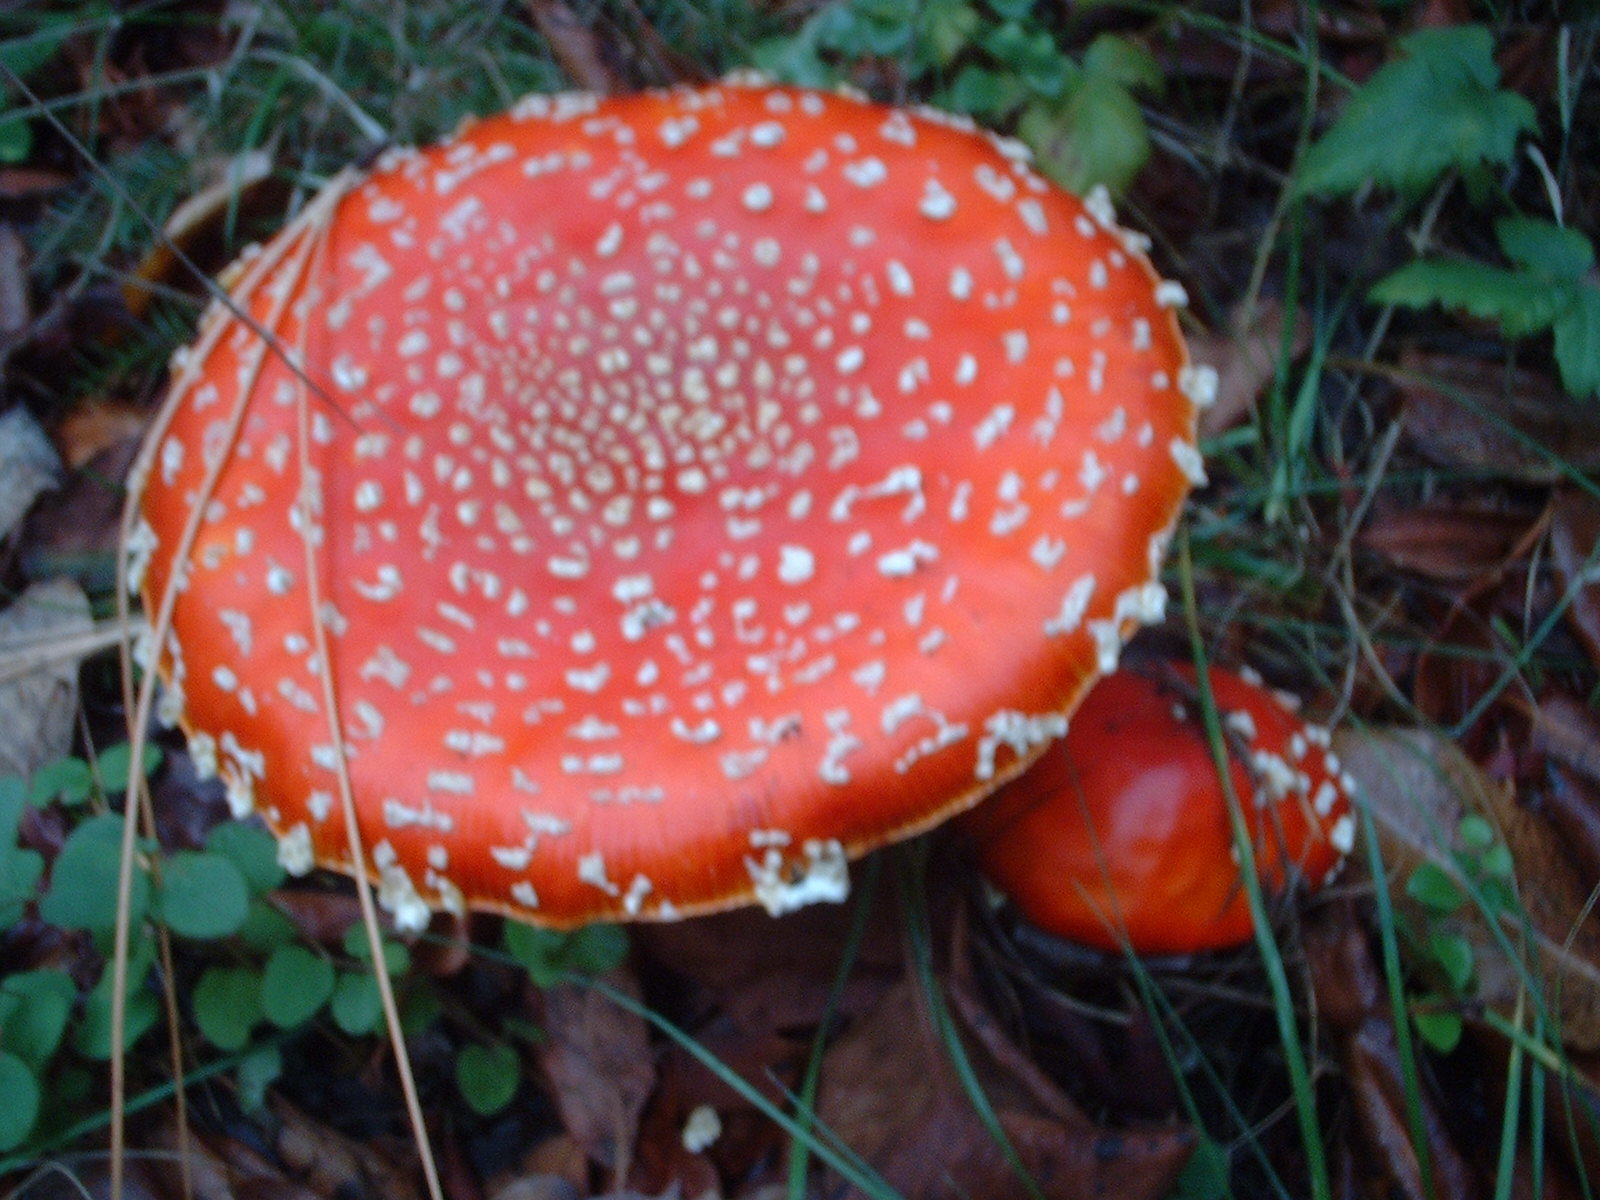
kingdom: Fungi
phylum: Basidiomycota
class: Agaricomycetes
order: Agaricales
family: Amanitaceae
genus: Amanita
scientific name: Amanita muscaria
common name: Fly agaric
